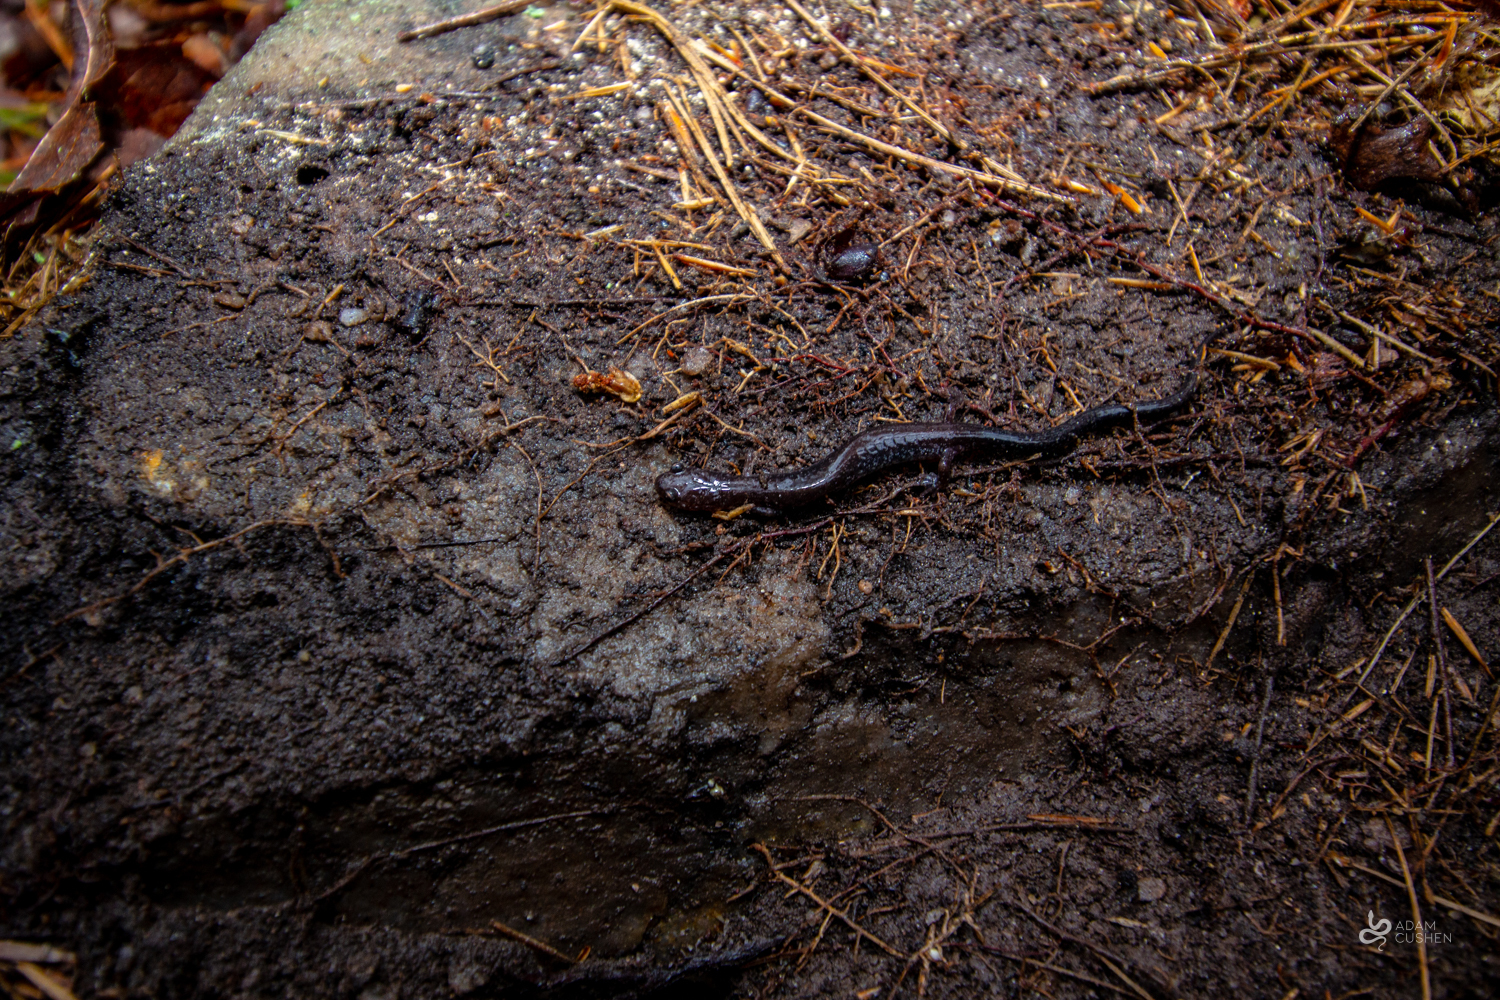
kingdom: Animalia
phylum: Chordata
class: Amphibia
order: Caudata
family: Plethodontidae
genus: Plethodon
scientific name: Plethodon cinereus
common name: Redback salamander
